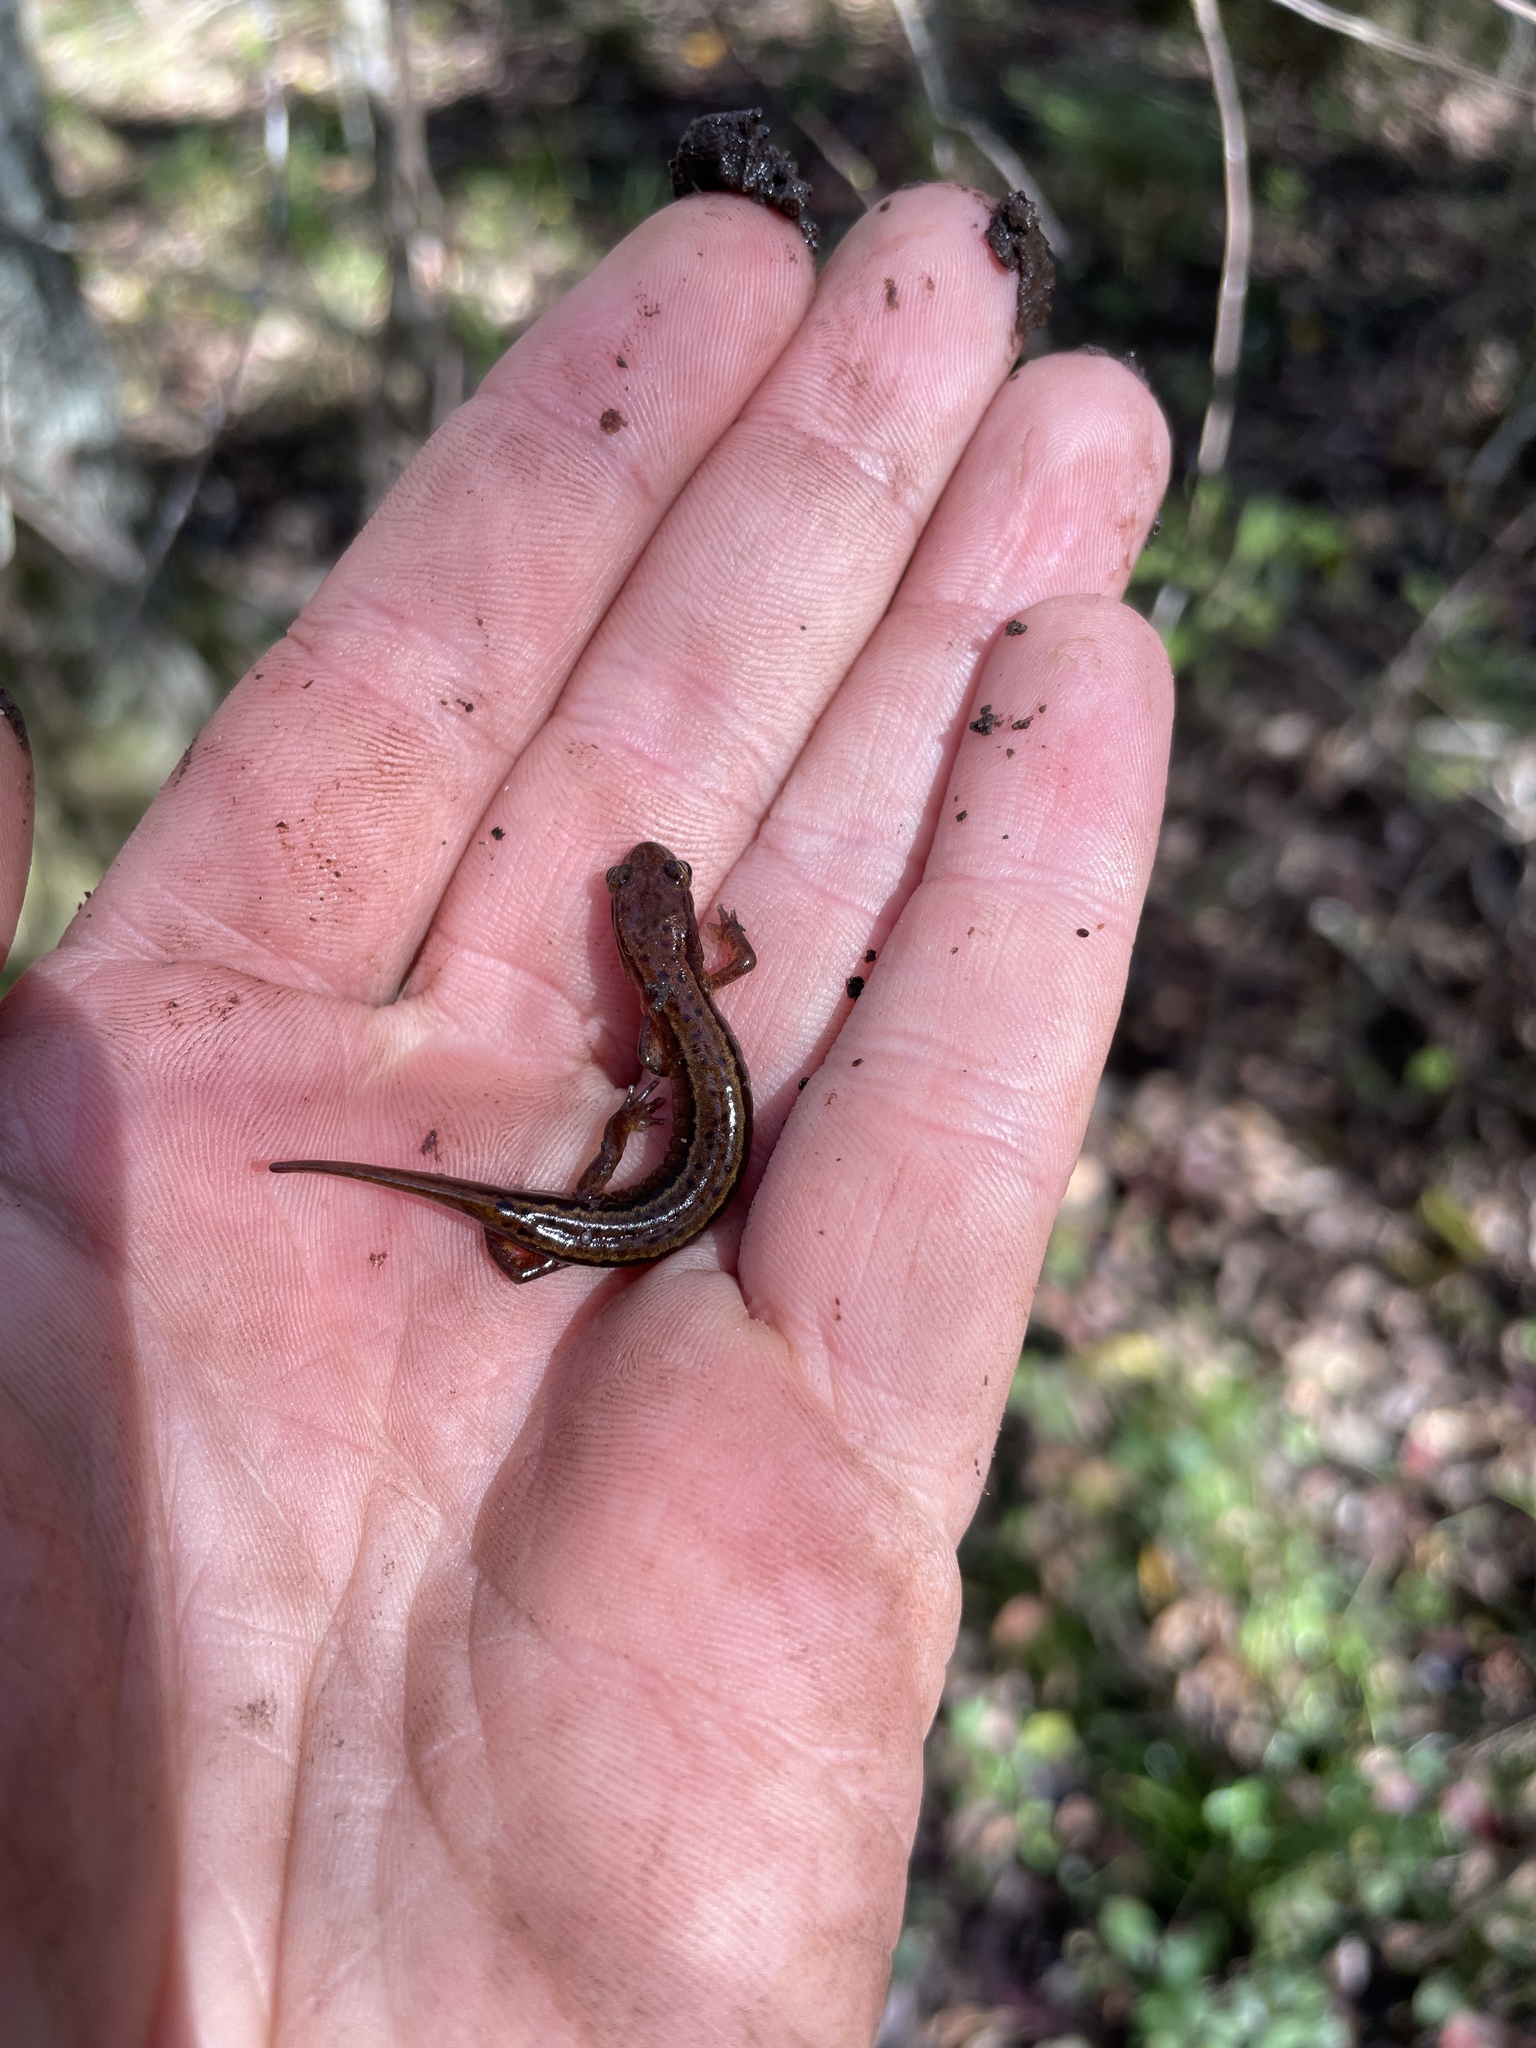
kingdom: Animalia
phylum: Chordata
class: Amphibia
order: Caudata
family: Plethodontidae
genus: Eurycea
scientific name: Eurycea cirrigera
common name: Southern two-lined salamander
